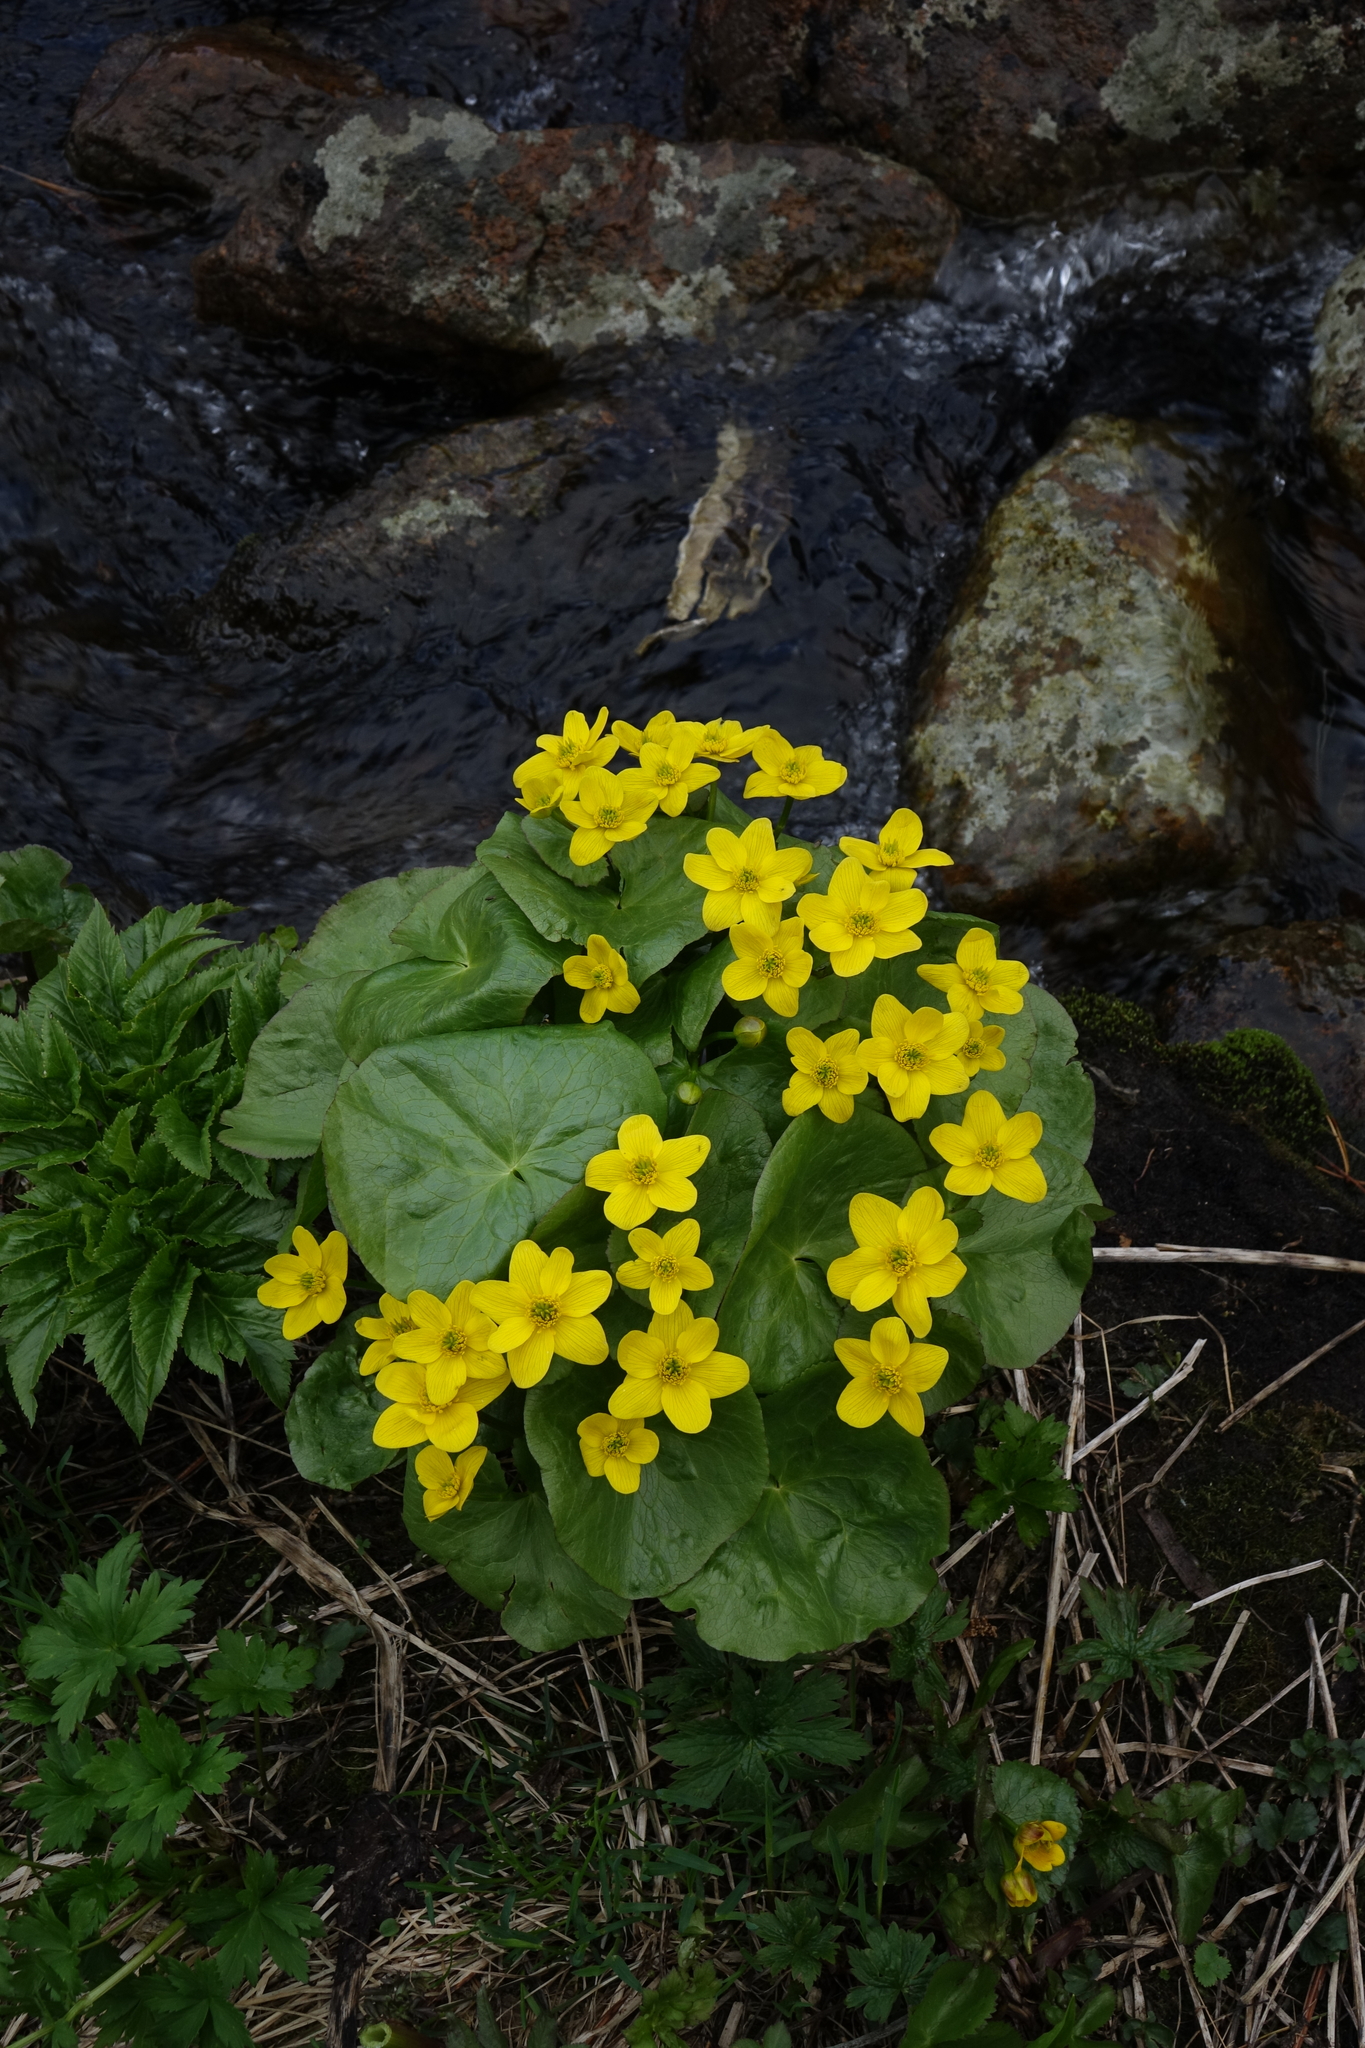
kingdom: Plantae
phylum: Tracheophyta
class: Magnoliopsida
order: Ranunculales
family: Ranunculaceae
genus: Caltha
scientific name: Caltha palustris
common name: Marsh marigold
